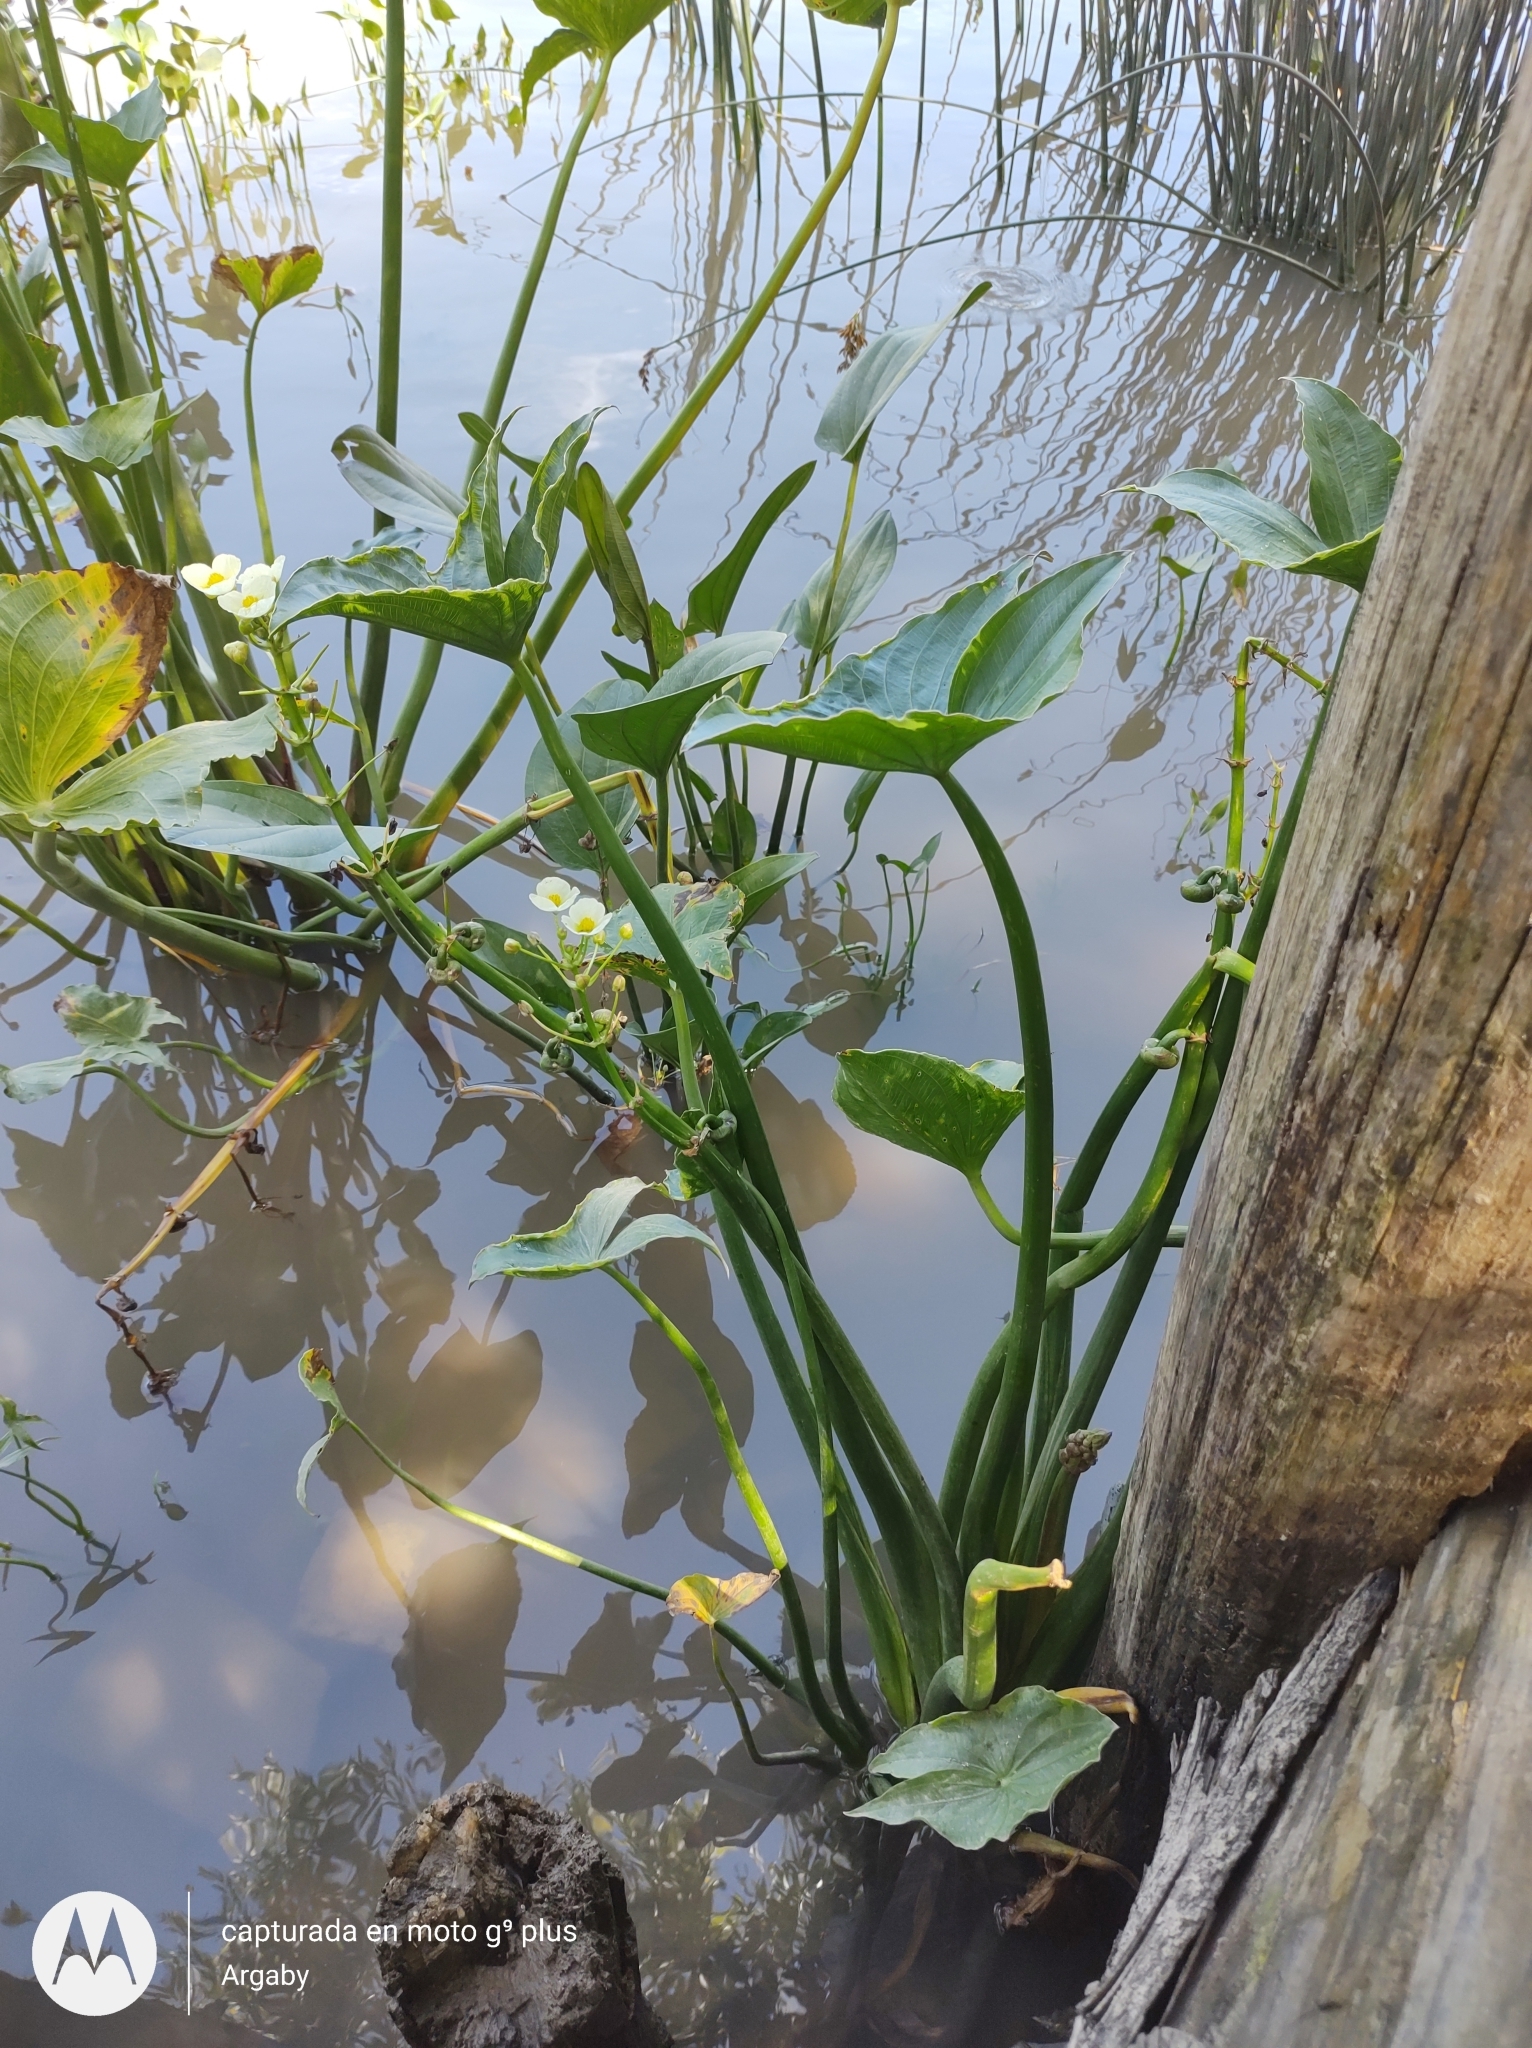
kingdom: Plantae
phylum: Tracheophyta
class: Liliopsida
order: Alismatales
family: Alismataceae
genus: Sagittaria
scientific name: Sagittaria montevidensis
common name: Giant arrowhead
